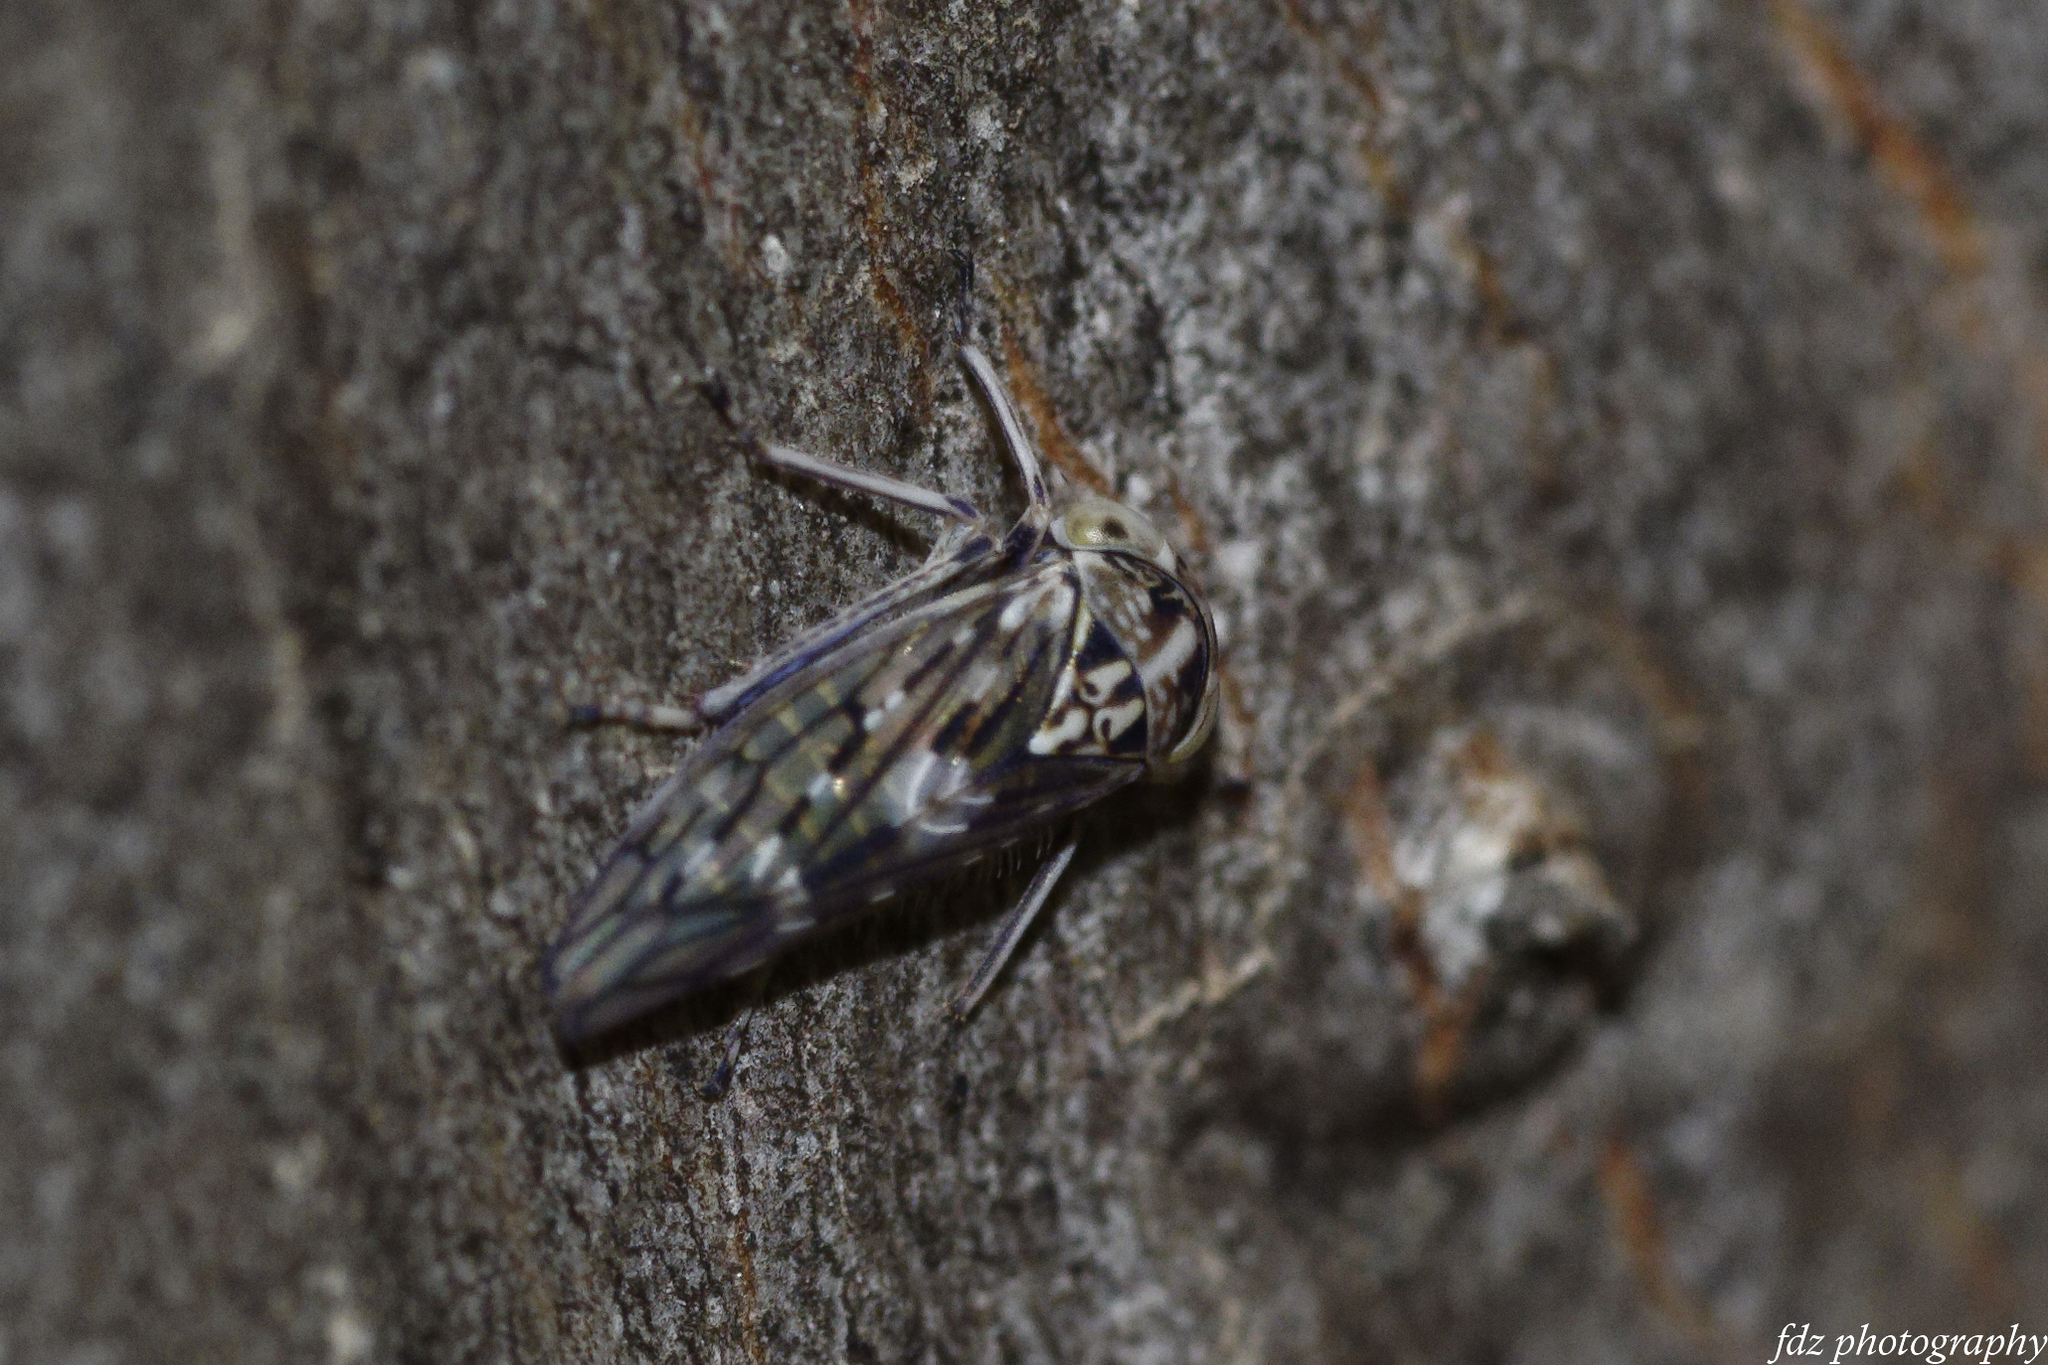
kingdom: Animalia
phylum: Arthropoda
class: Insecta
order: Hemiptera
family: Cicadellidae
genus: Metidiocerus
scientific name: Metidiocerus poecilus
